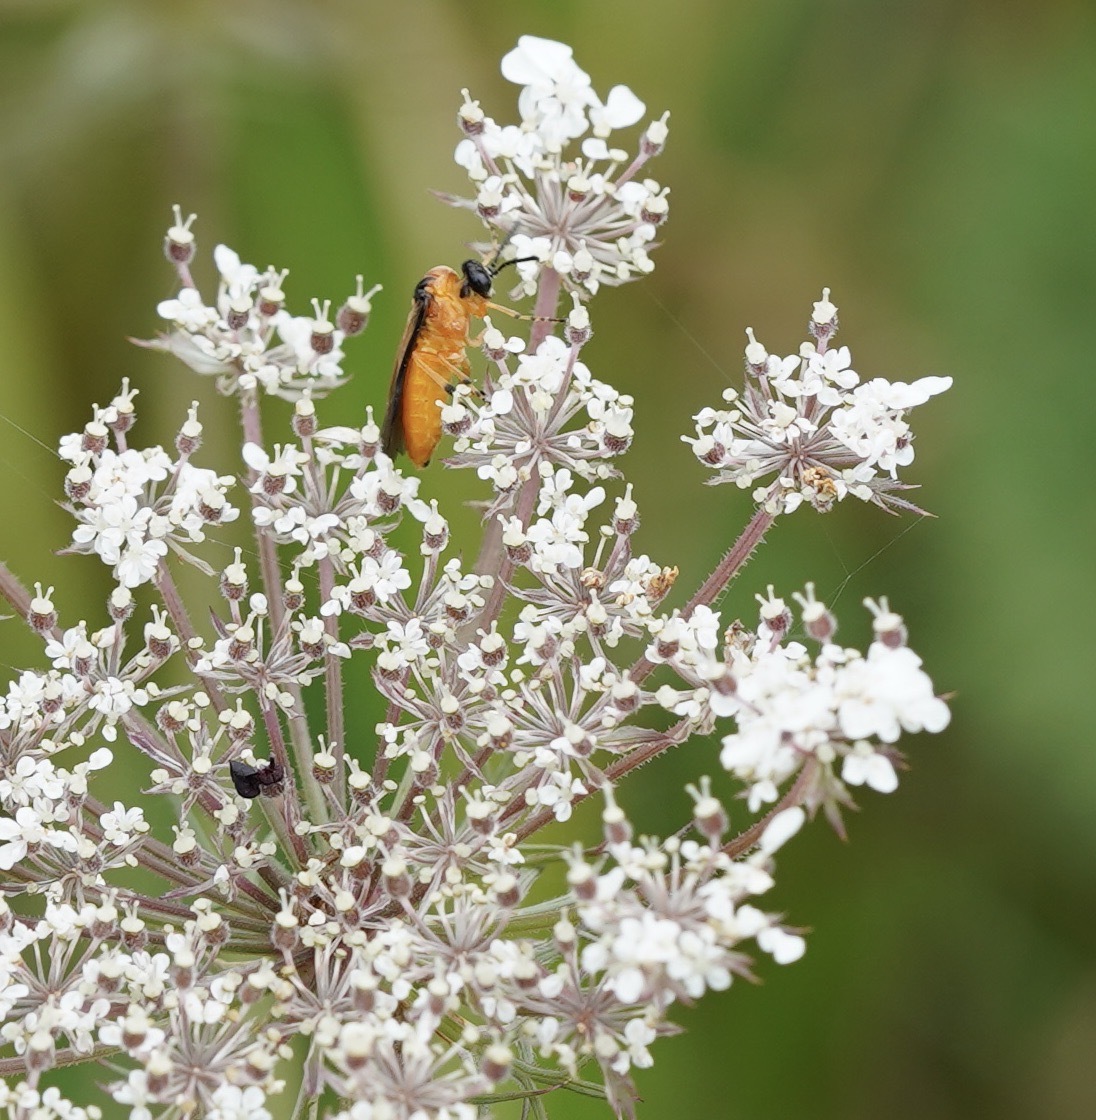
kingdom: Animalia
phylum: Arthropoda
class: Insecta
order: Hymenoptera
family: Tenthredinidae
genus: Athalia
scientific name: Athalia rosae
